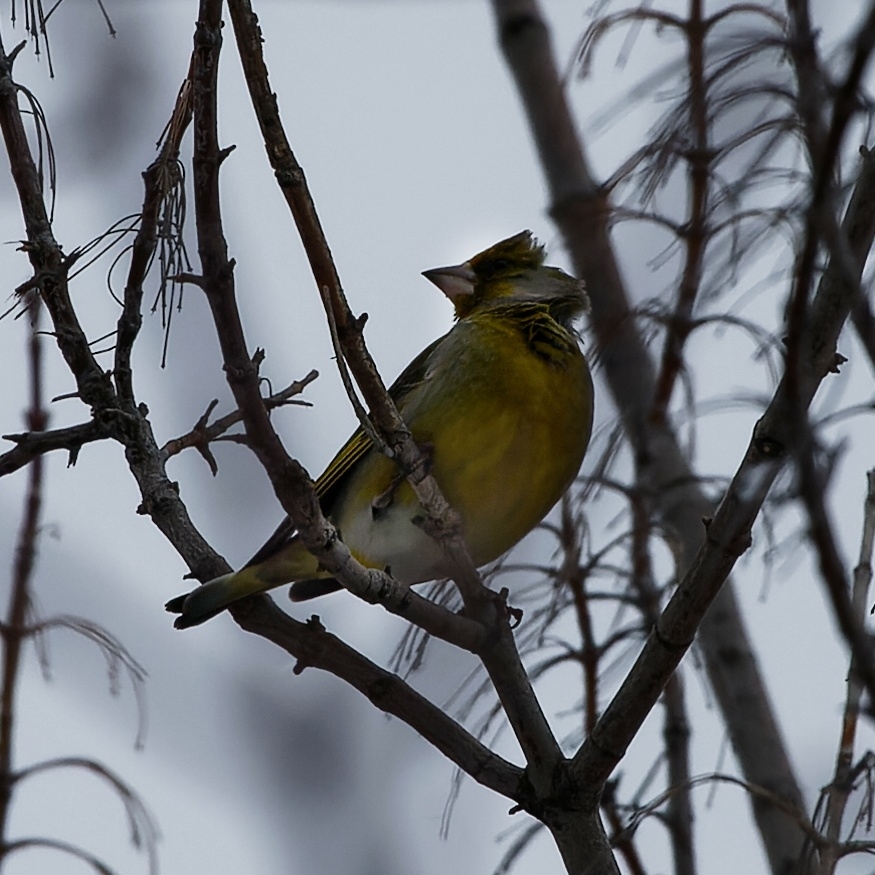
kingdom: Plantae
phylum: Tracheophyta
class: Liliopsida
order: Poales
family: Poaceae
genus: Chloris
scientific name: Chloris chloris
